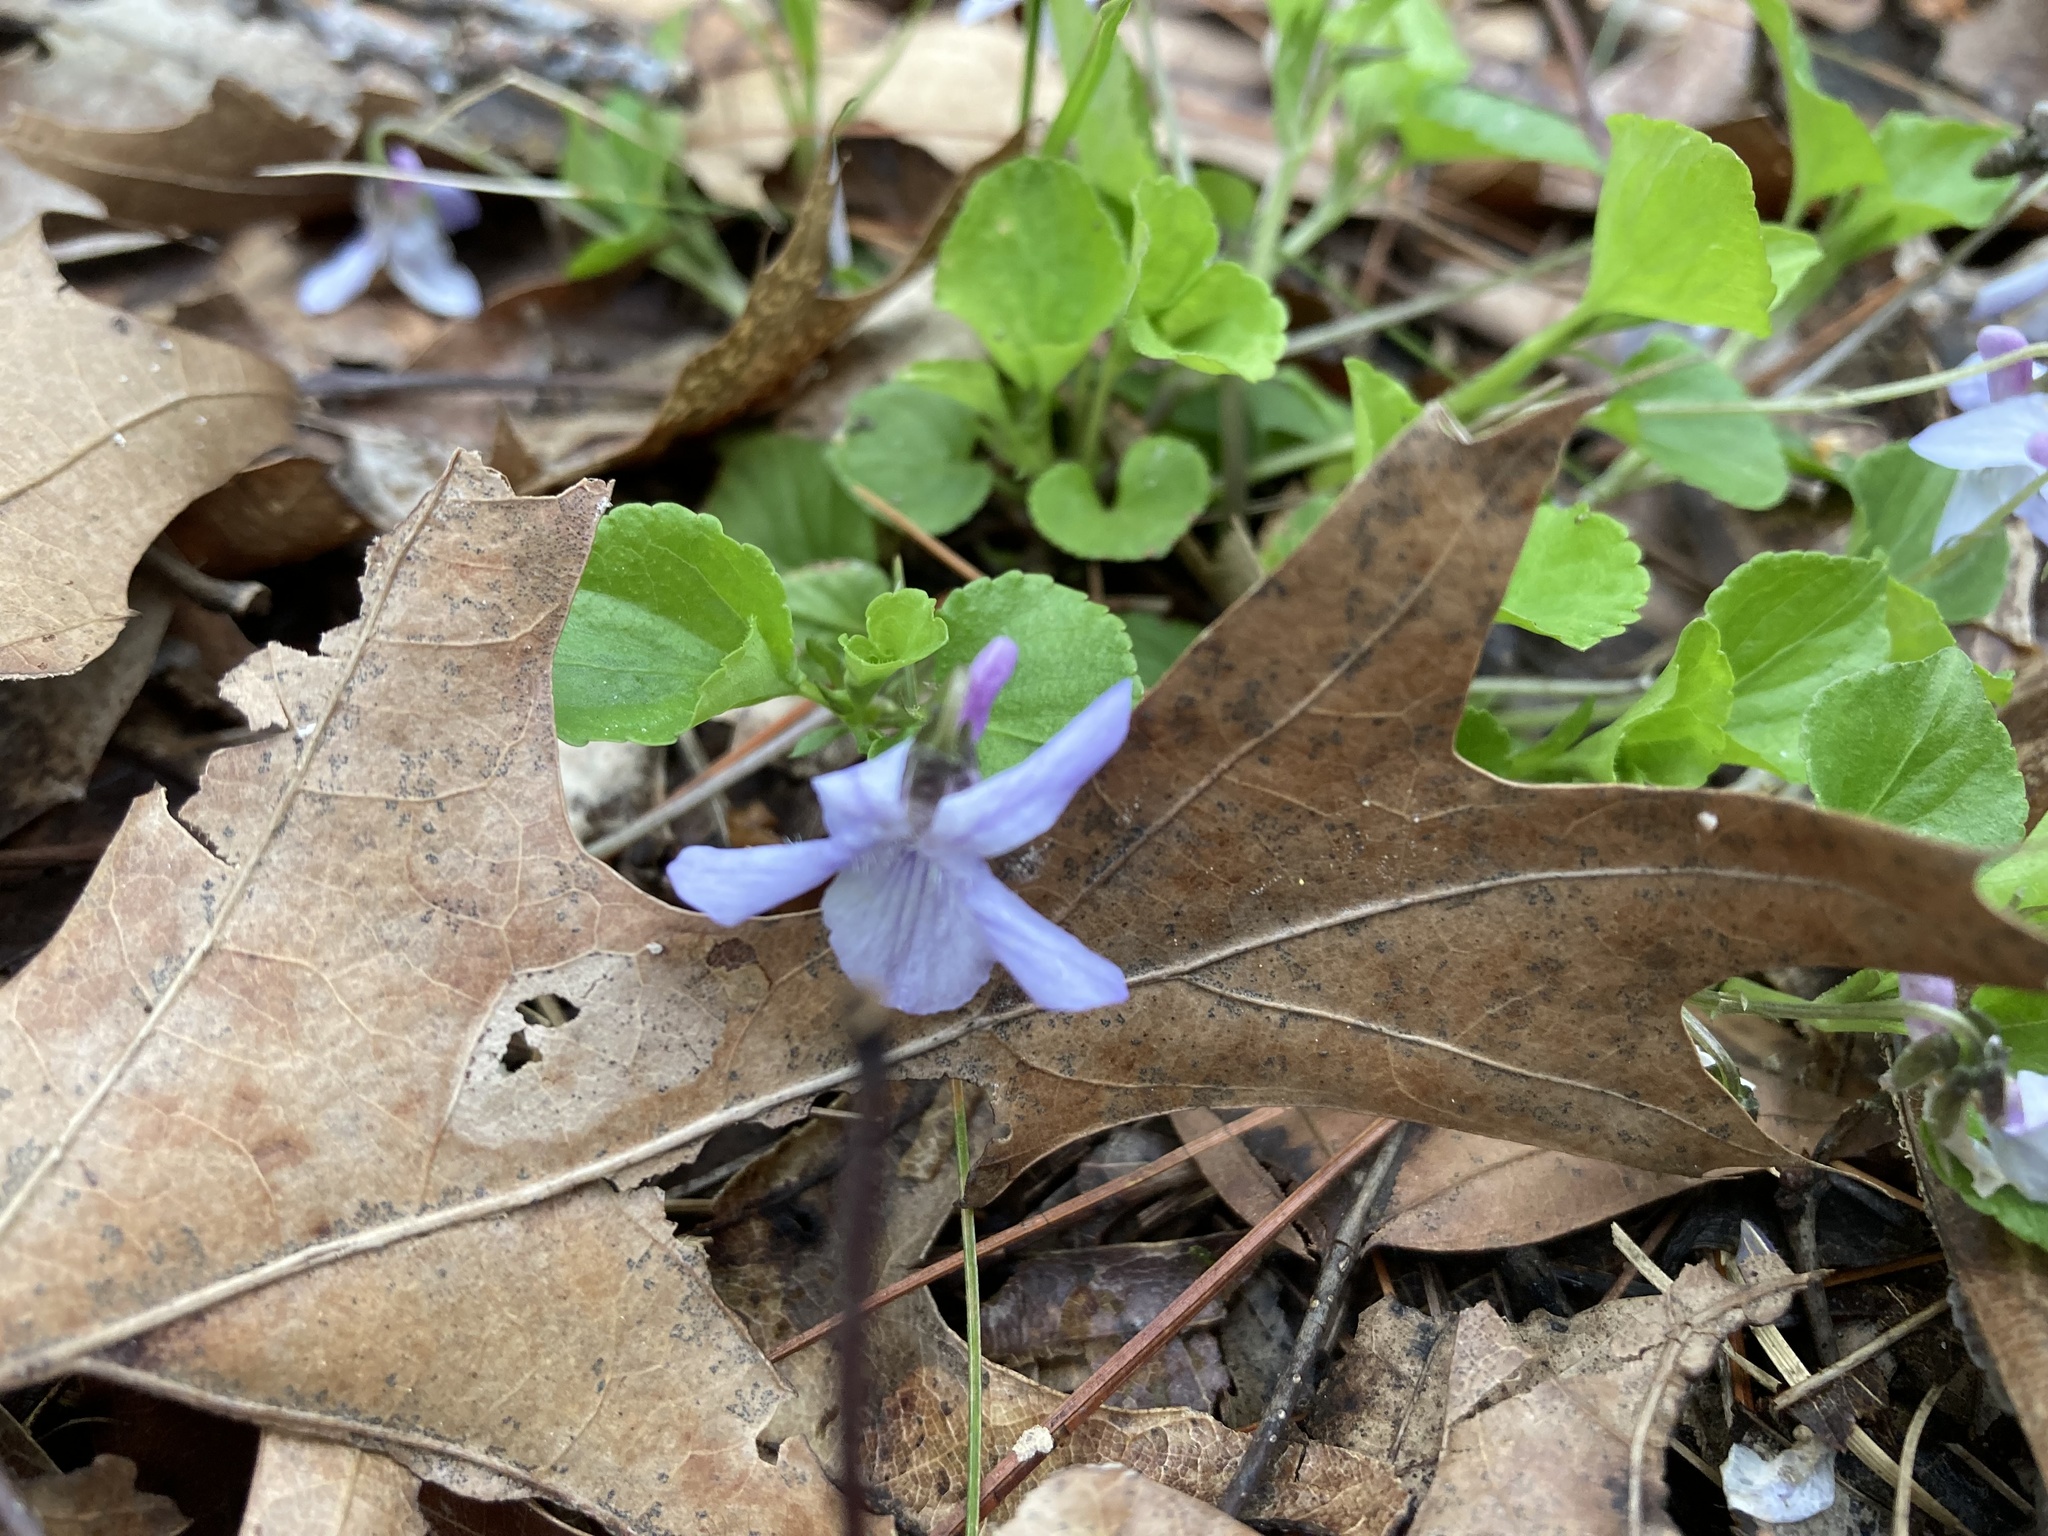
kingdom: Plantae
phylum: Tracheophyta
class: Magnoliopsida
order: Malpighiales
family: Violaceae
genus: Viola
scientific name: Viola labradorica
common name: Labrador violet
